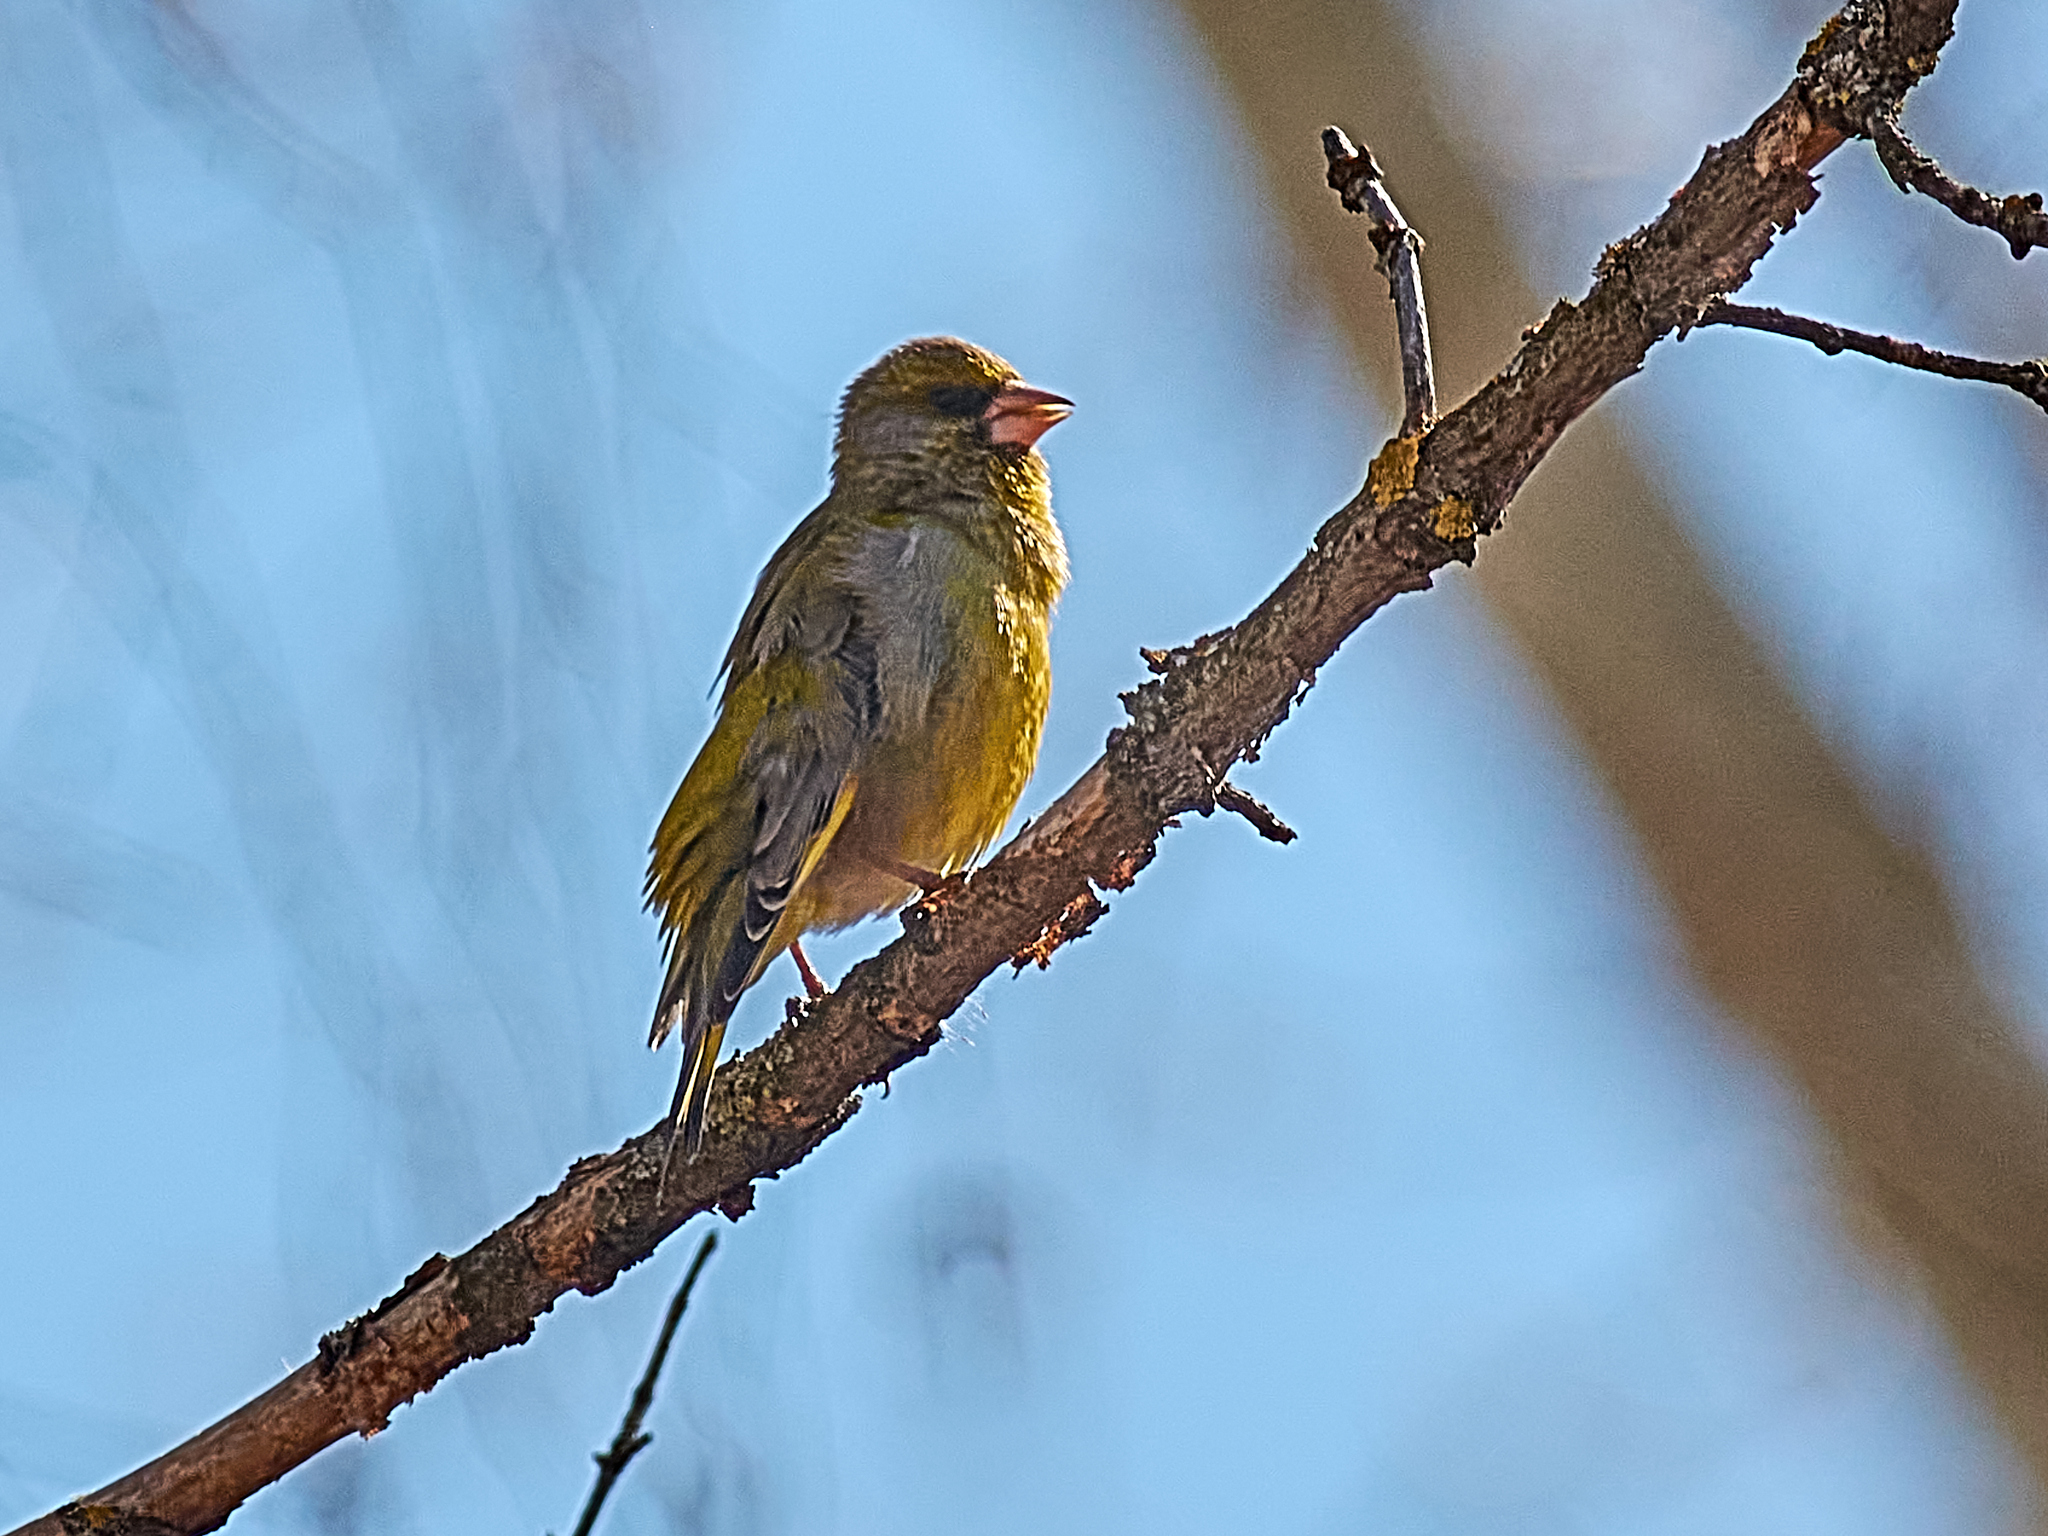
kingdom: Plantae
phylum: Tracheophyta
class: Liliopsida
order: Poales
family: Poaceae
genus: Chloris
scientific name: Chloris chloris
